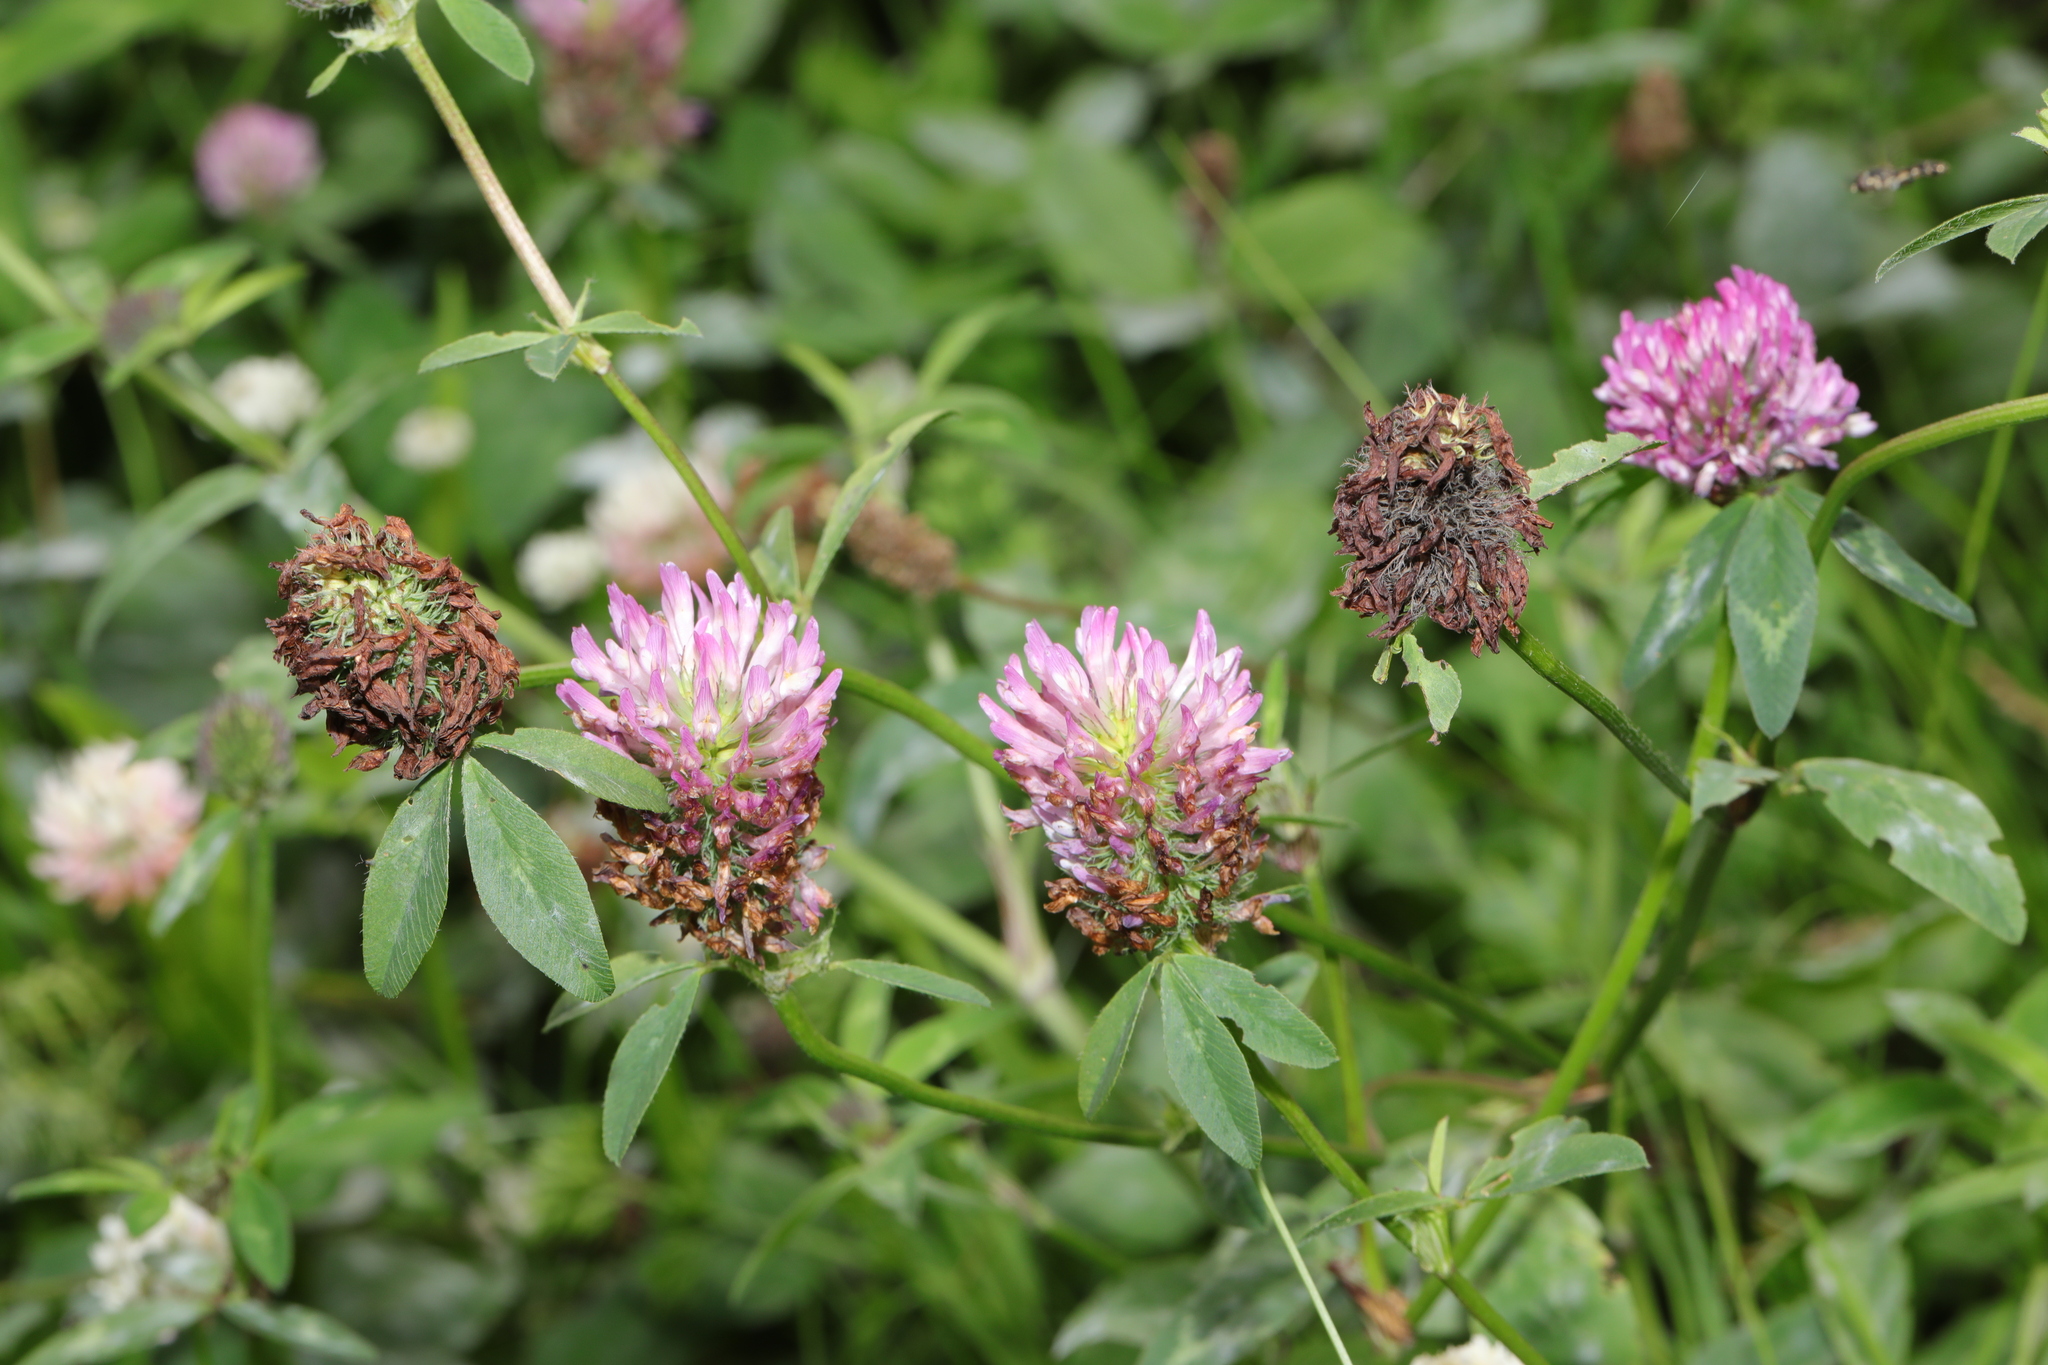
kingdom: Plantae
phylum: Tracheophyta
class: Magnoliopsida
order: Fabales
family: Fabaceae
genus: Trifolium
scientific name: Trifolium pratense
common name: Red clover
